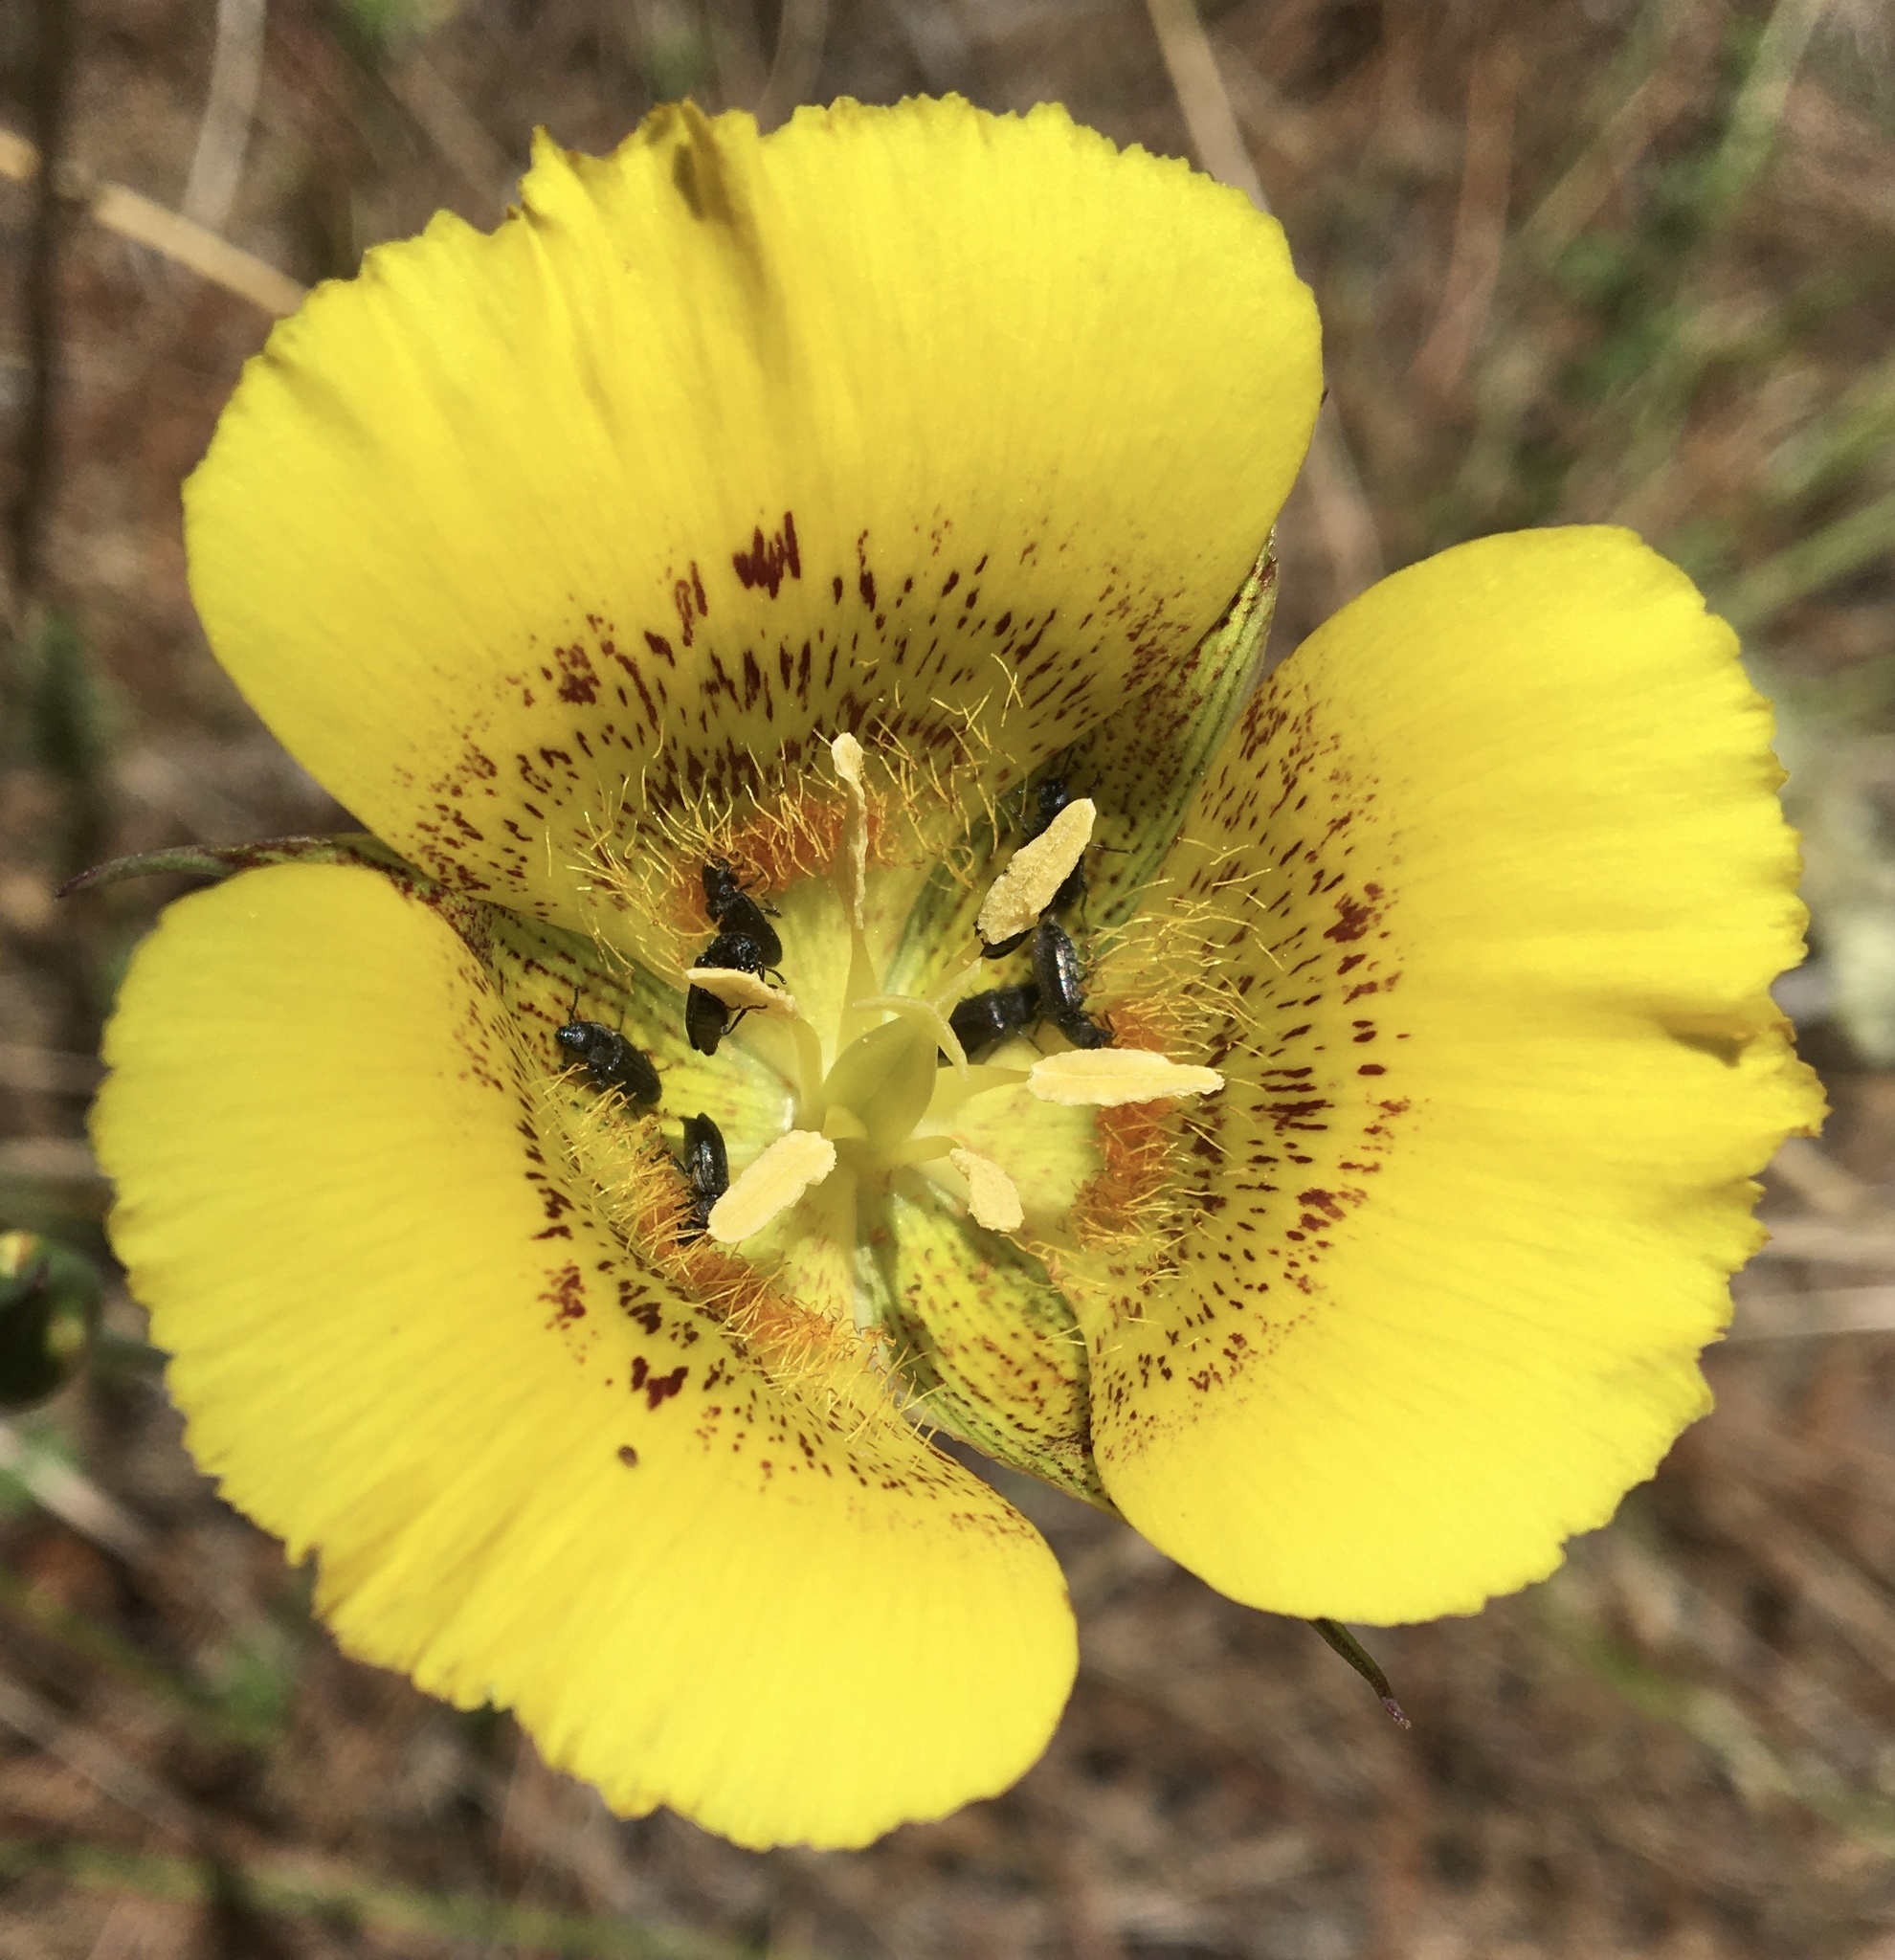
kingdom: Plantae
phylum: Tracheophyta
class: Liliopsida
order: Liliales
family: Liliaceae
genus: Calochortus
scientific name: Calochortus luteus
